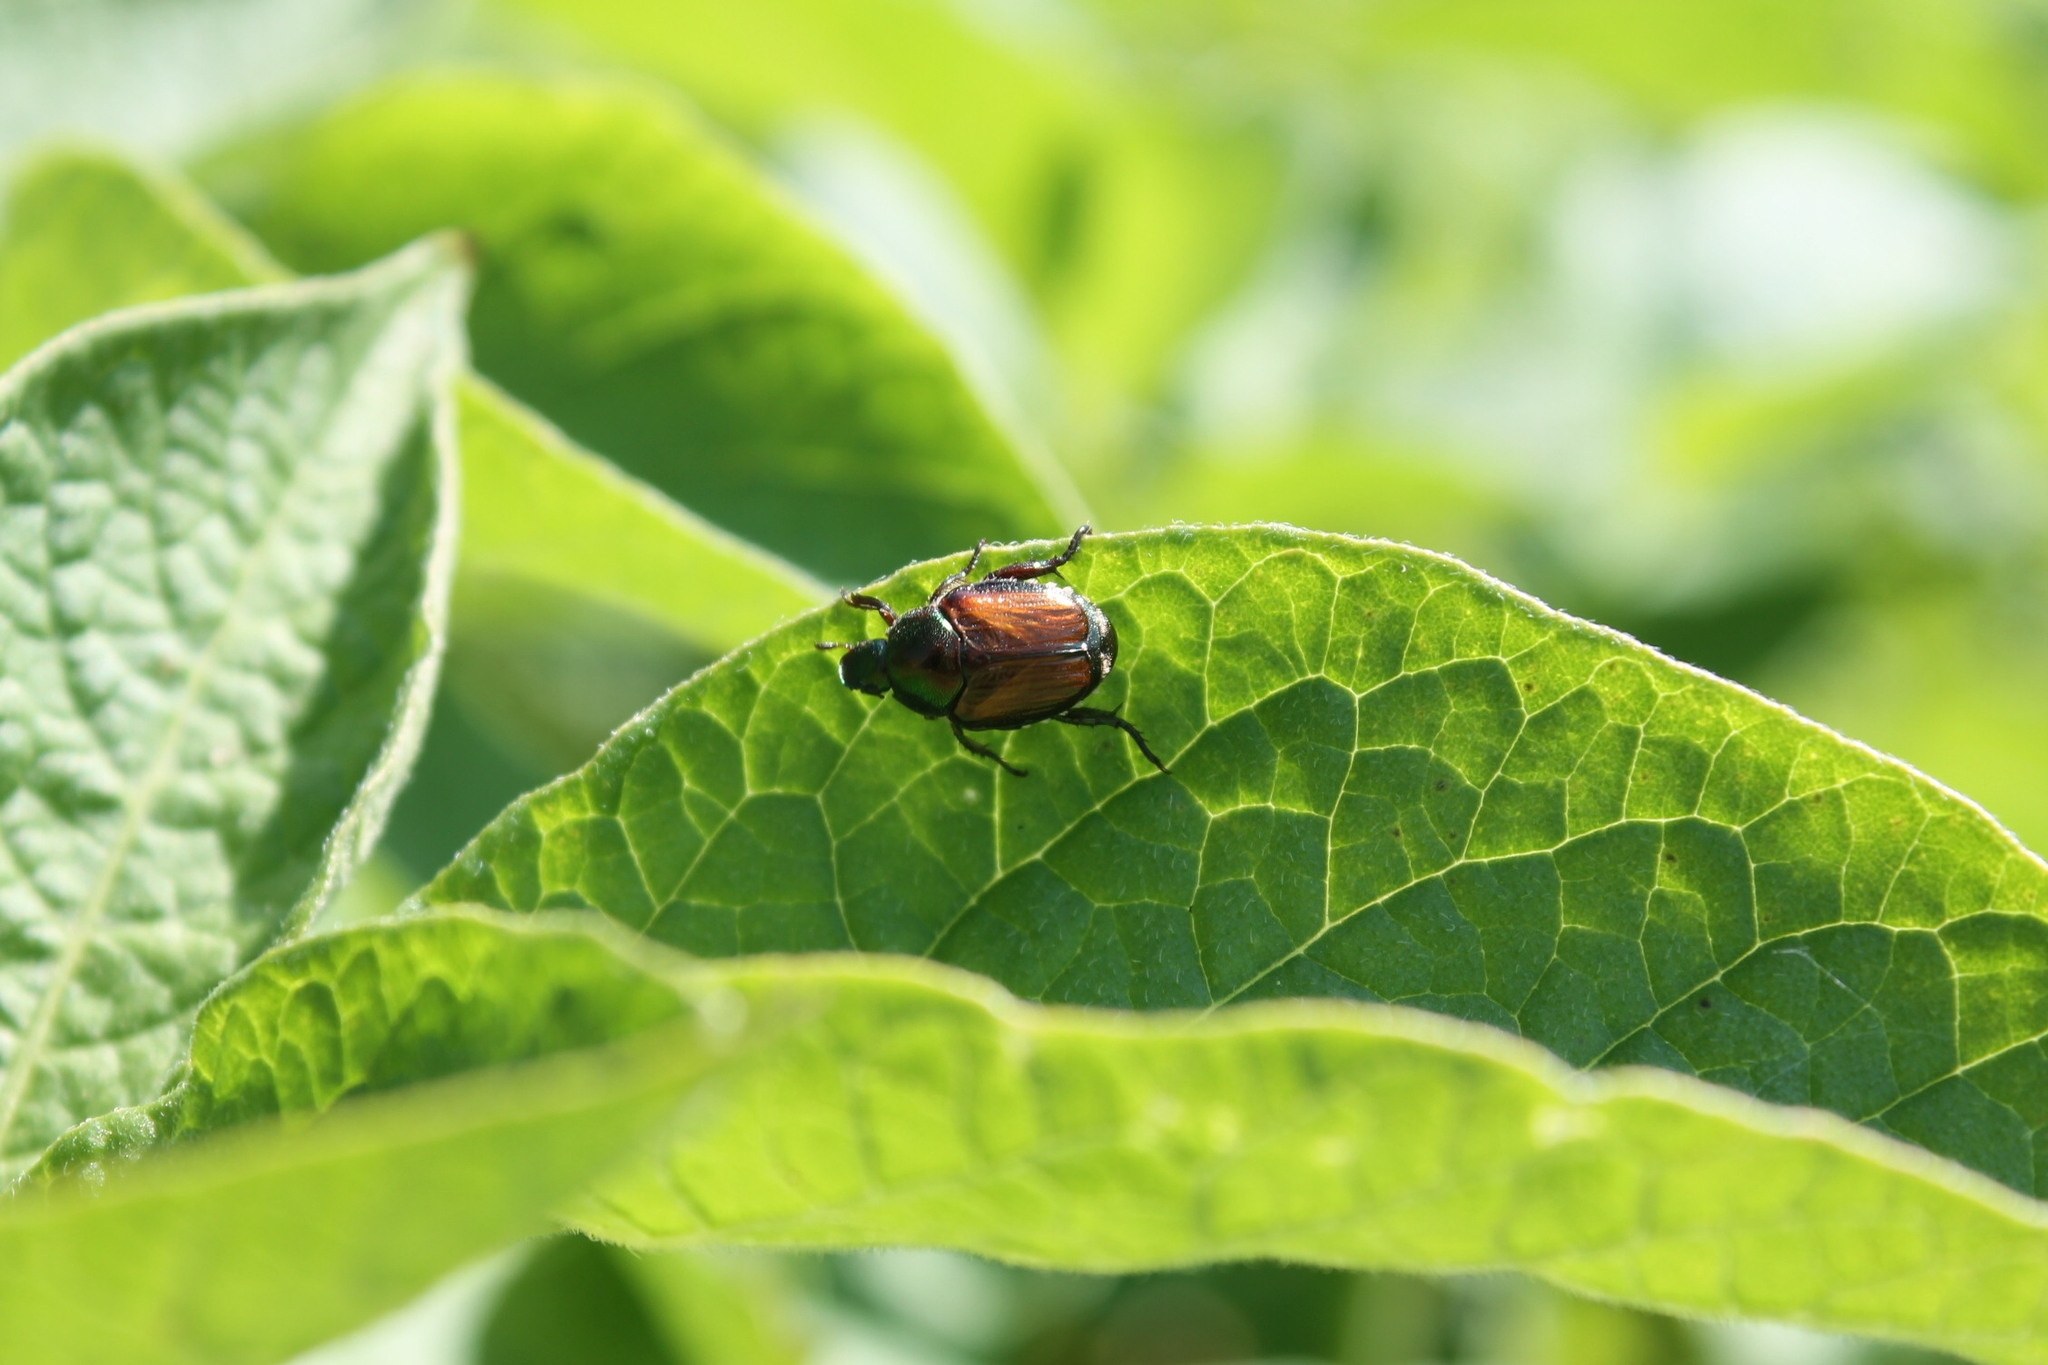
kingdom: Animalia
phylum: Arthropoda
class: Insecta
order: Coleoptera
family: Scarabaeidae
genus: Popillia
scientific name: Popillia japonica
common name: Japanese beetle
